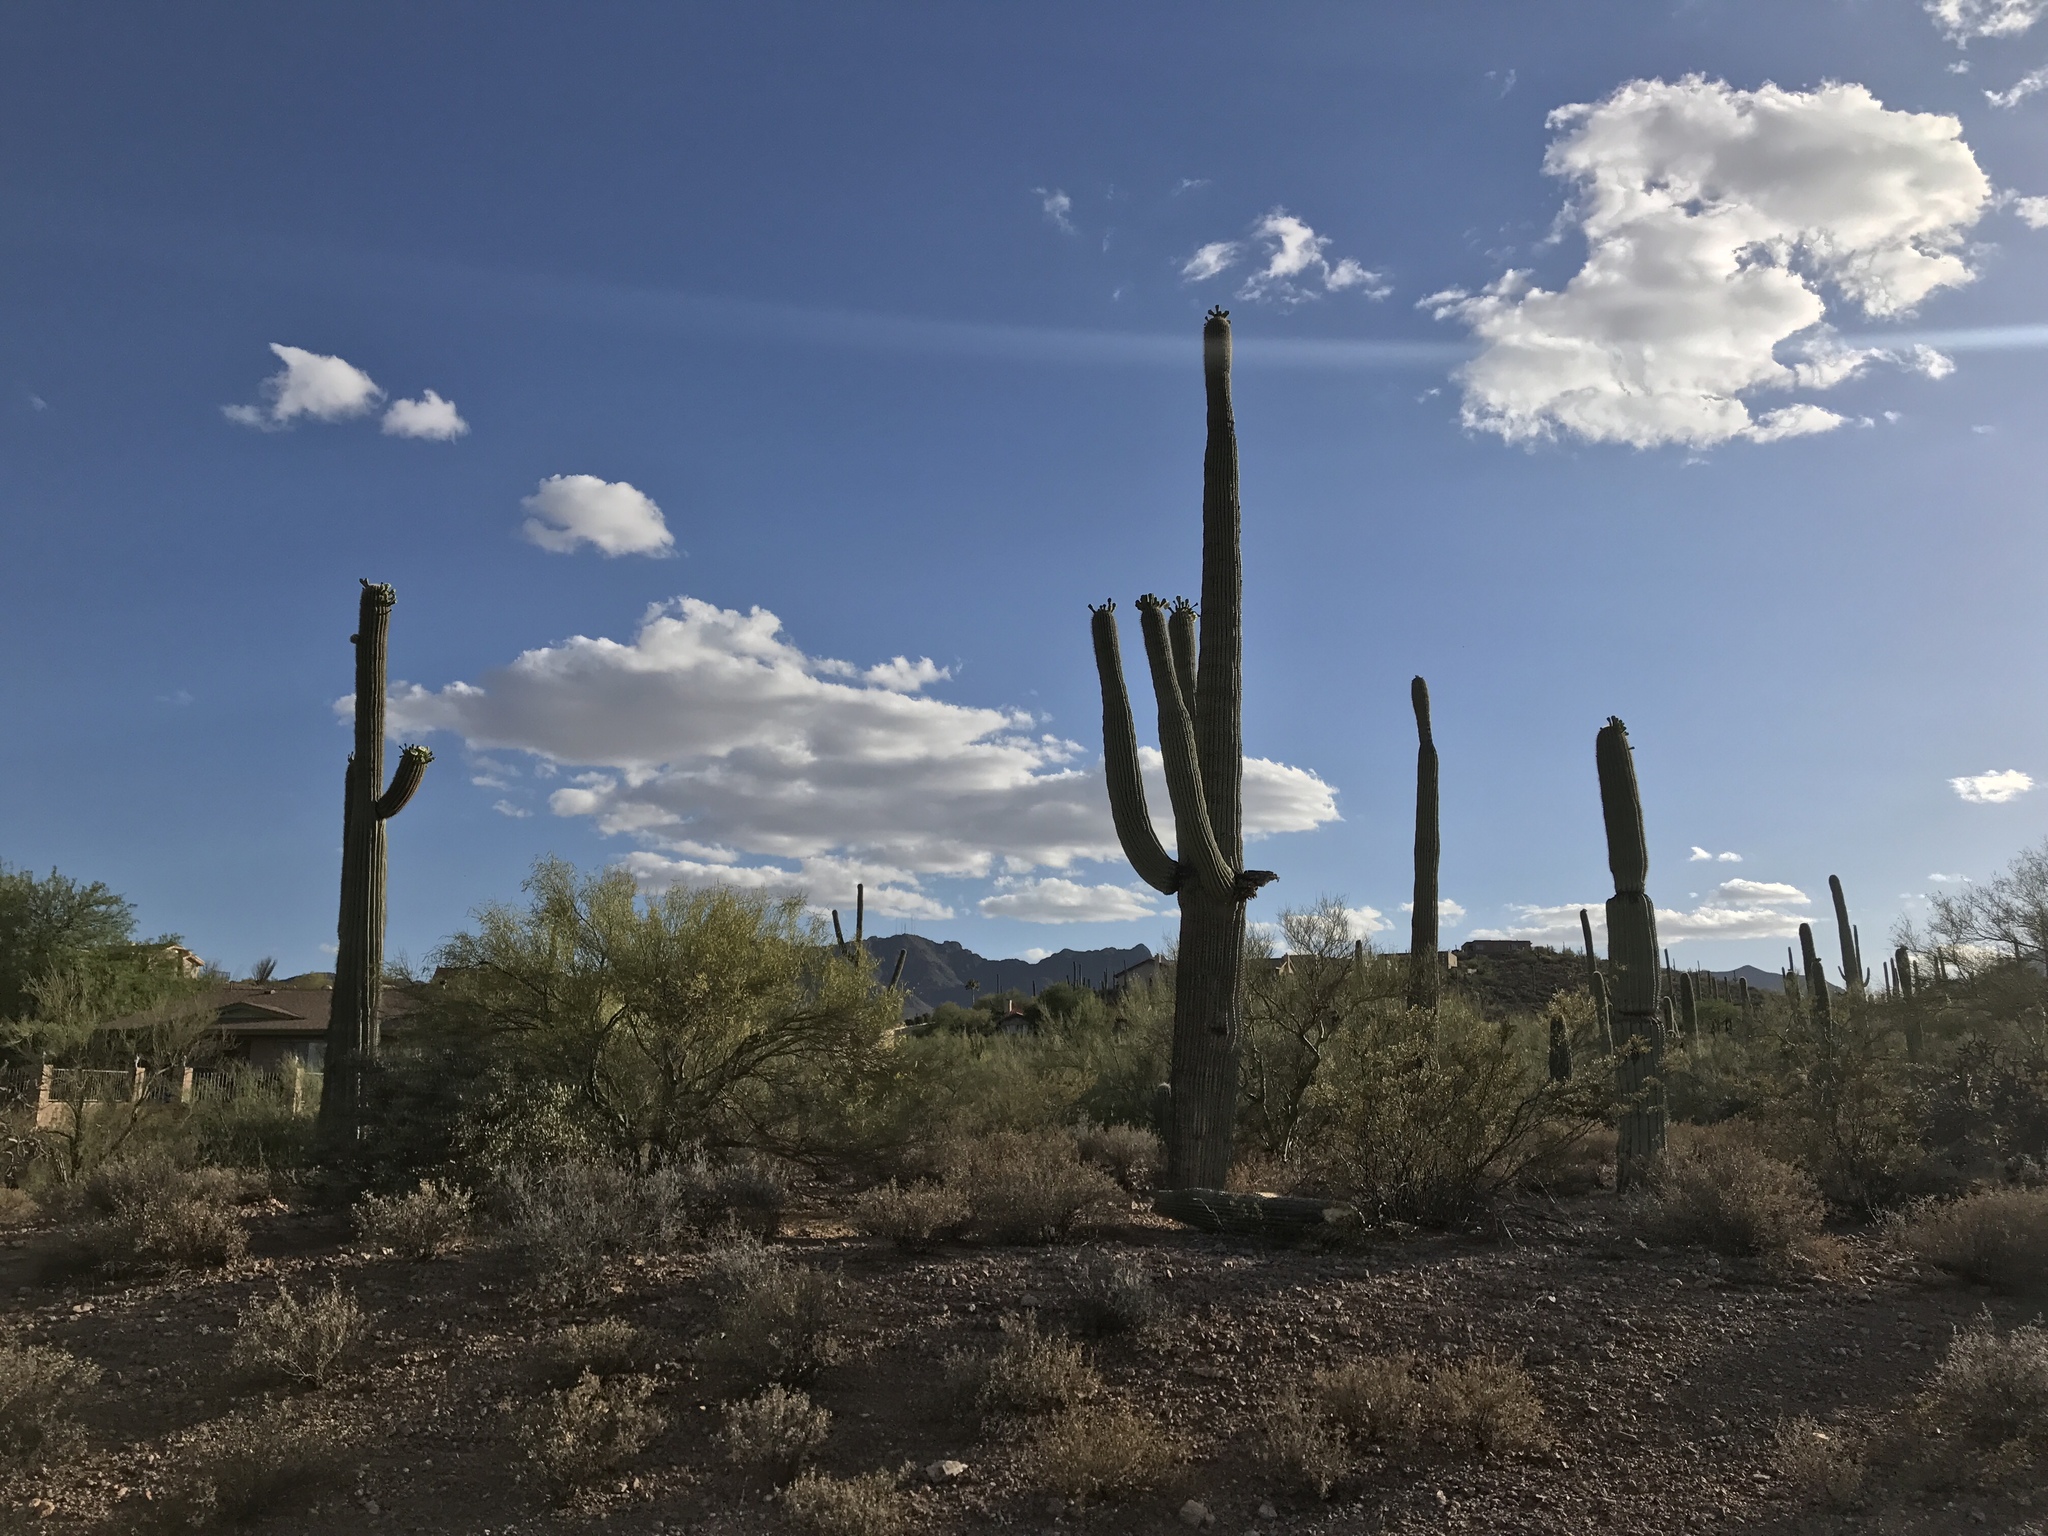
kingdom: Plantae
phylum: Tracheophyta
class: Magnoliopsida
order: Caryophyllales
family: Cactaceae
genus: Carnegiea
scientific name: Carnegiea gigantea
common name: Saguaro
